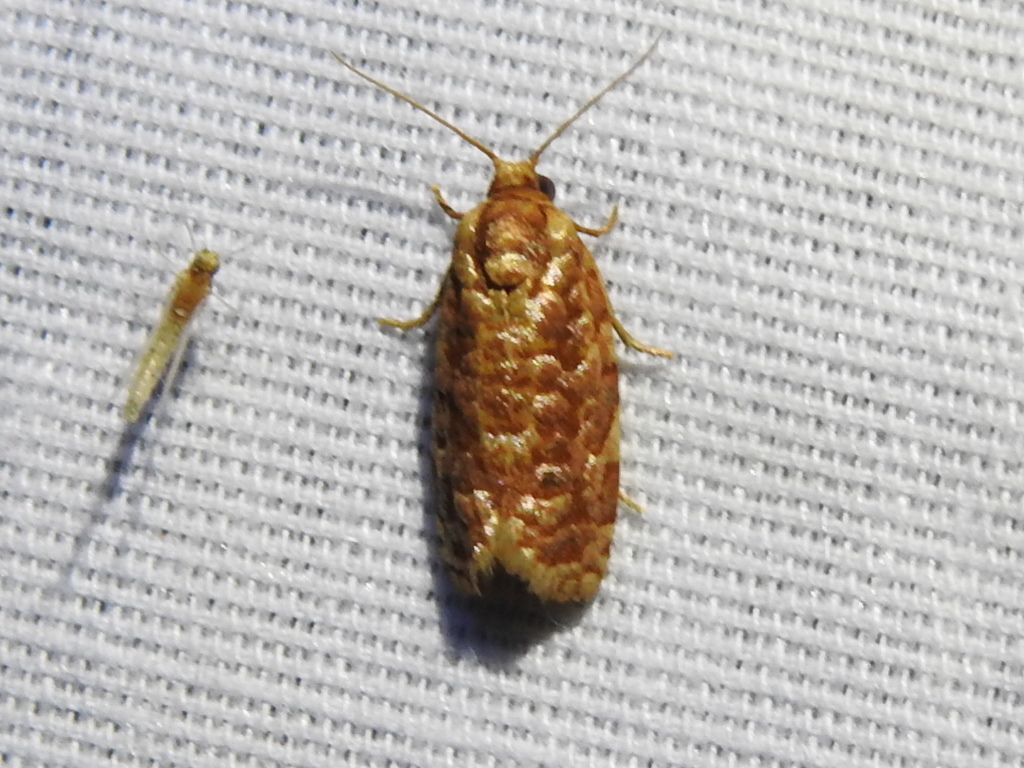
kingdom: Animalia
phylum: Arthropoda
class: Insecta
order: Lepidoptera
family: Tortricidae
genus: Choristoneura
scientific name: Choristoneura houstonana
